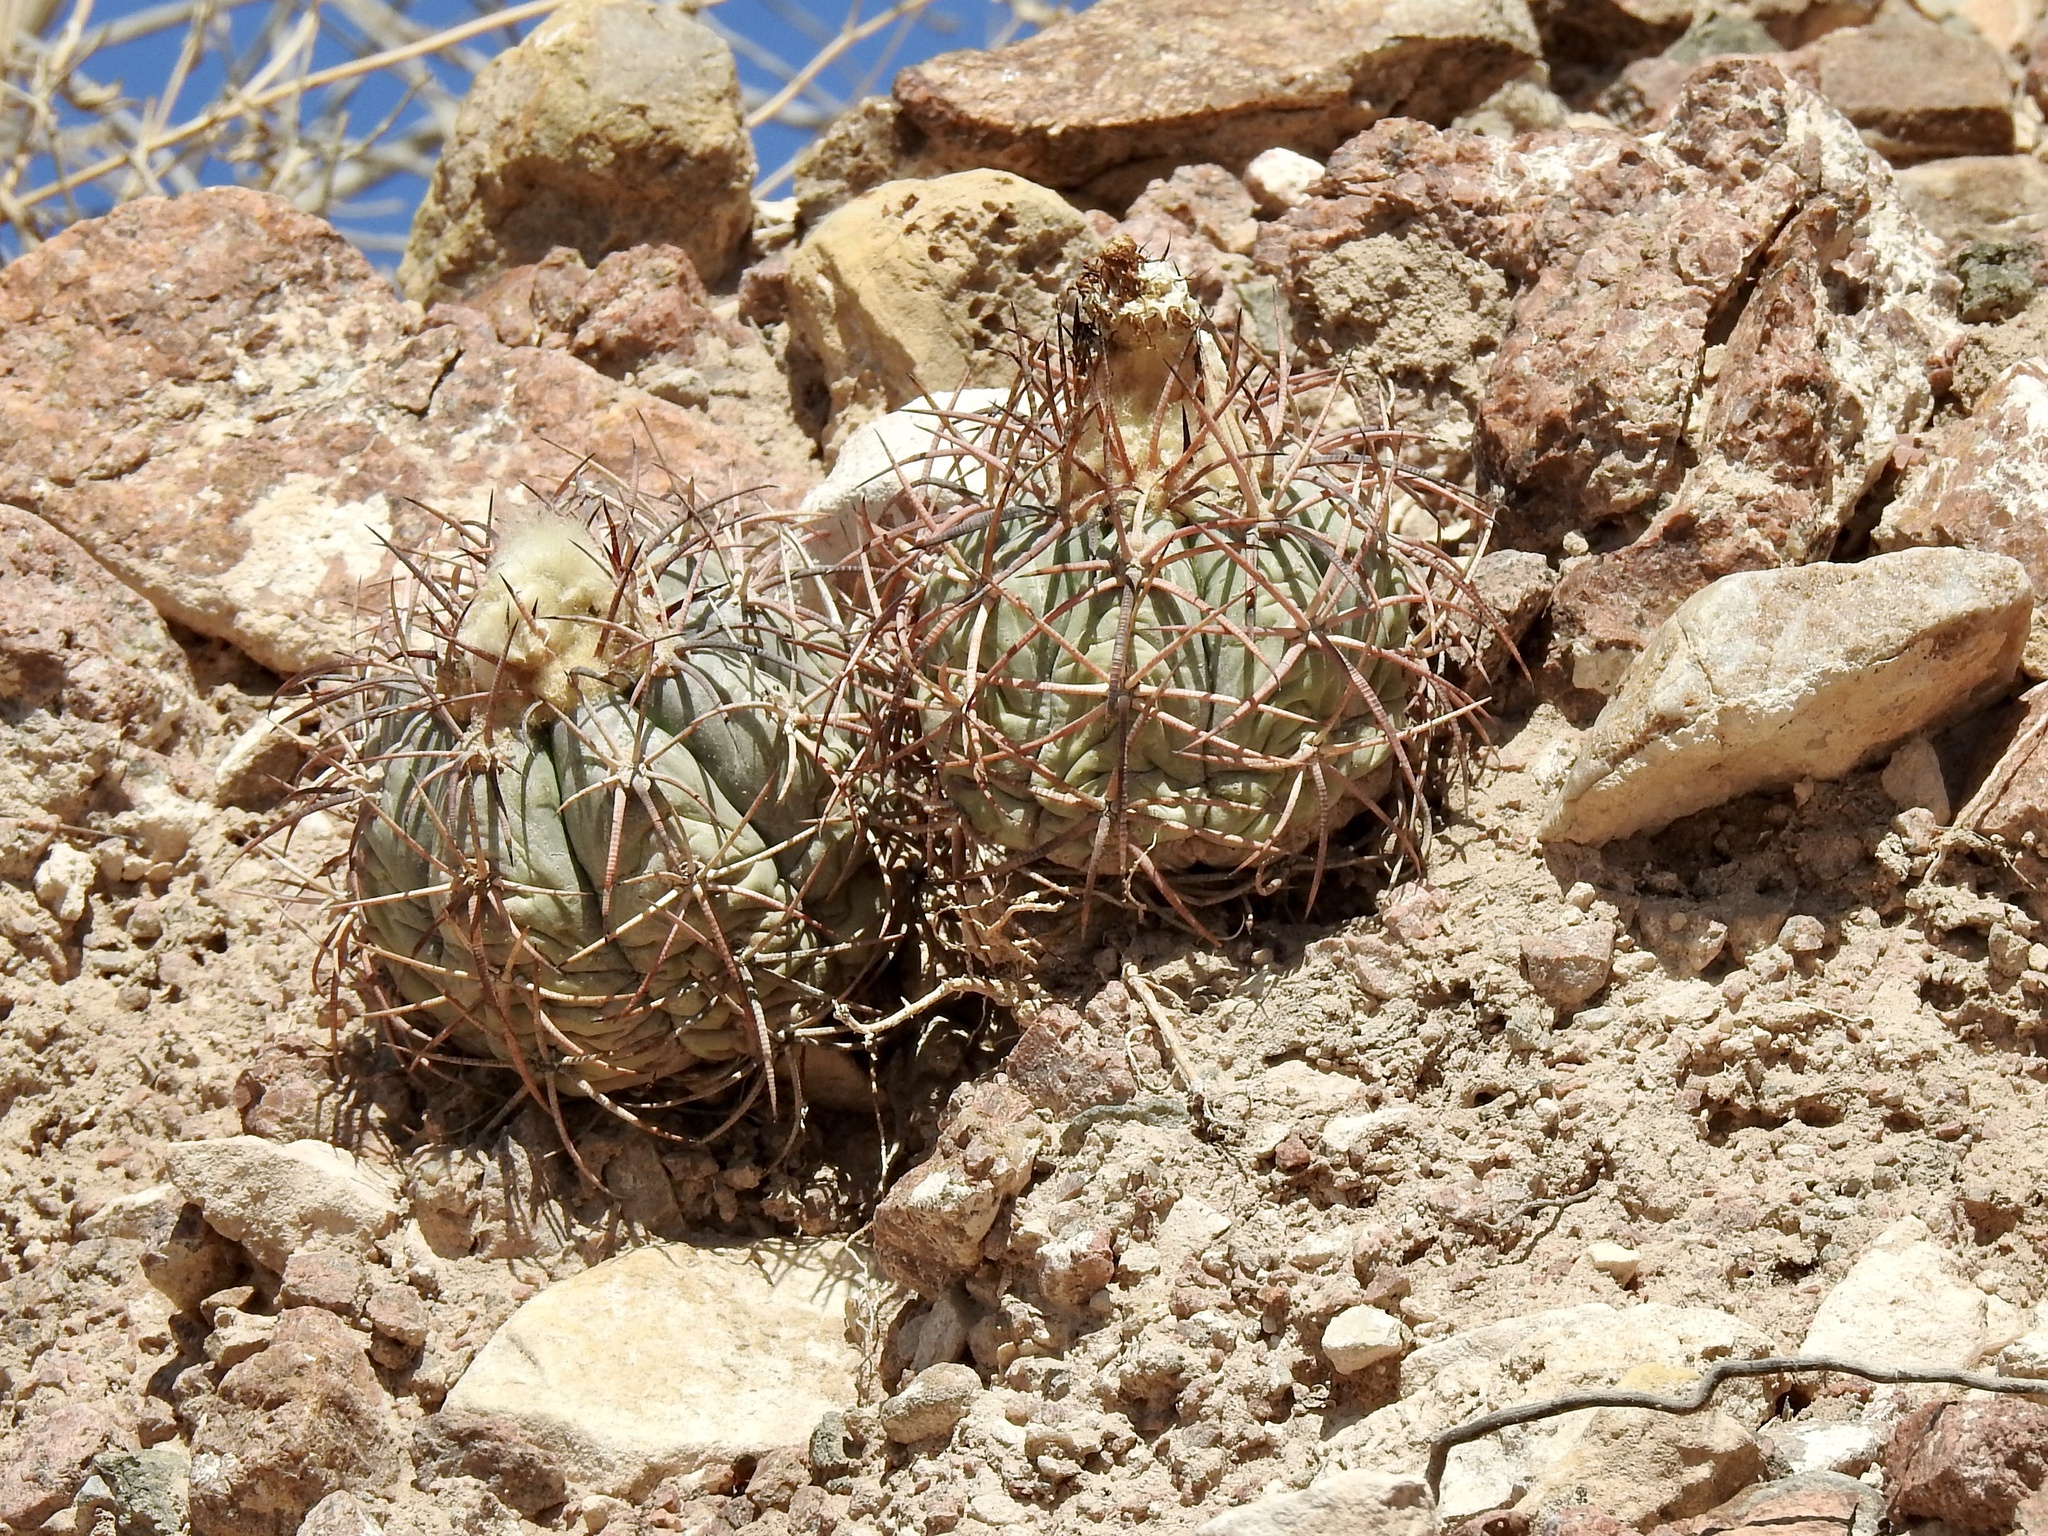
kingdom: Plantae
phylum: Tracheophyta
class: Magnoliopsida
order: Caryophyllales
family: Cactaceae
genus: Echinocactus
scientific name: Echinocactus horizonthalonius
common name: Devilshead
